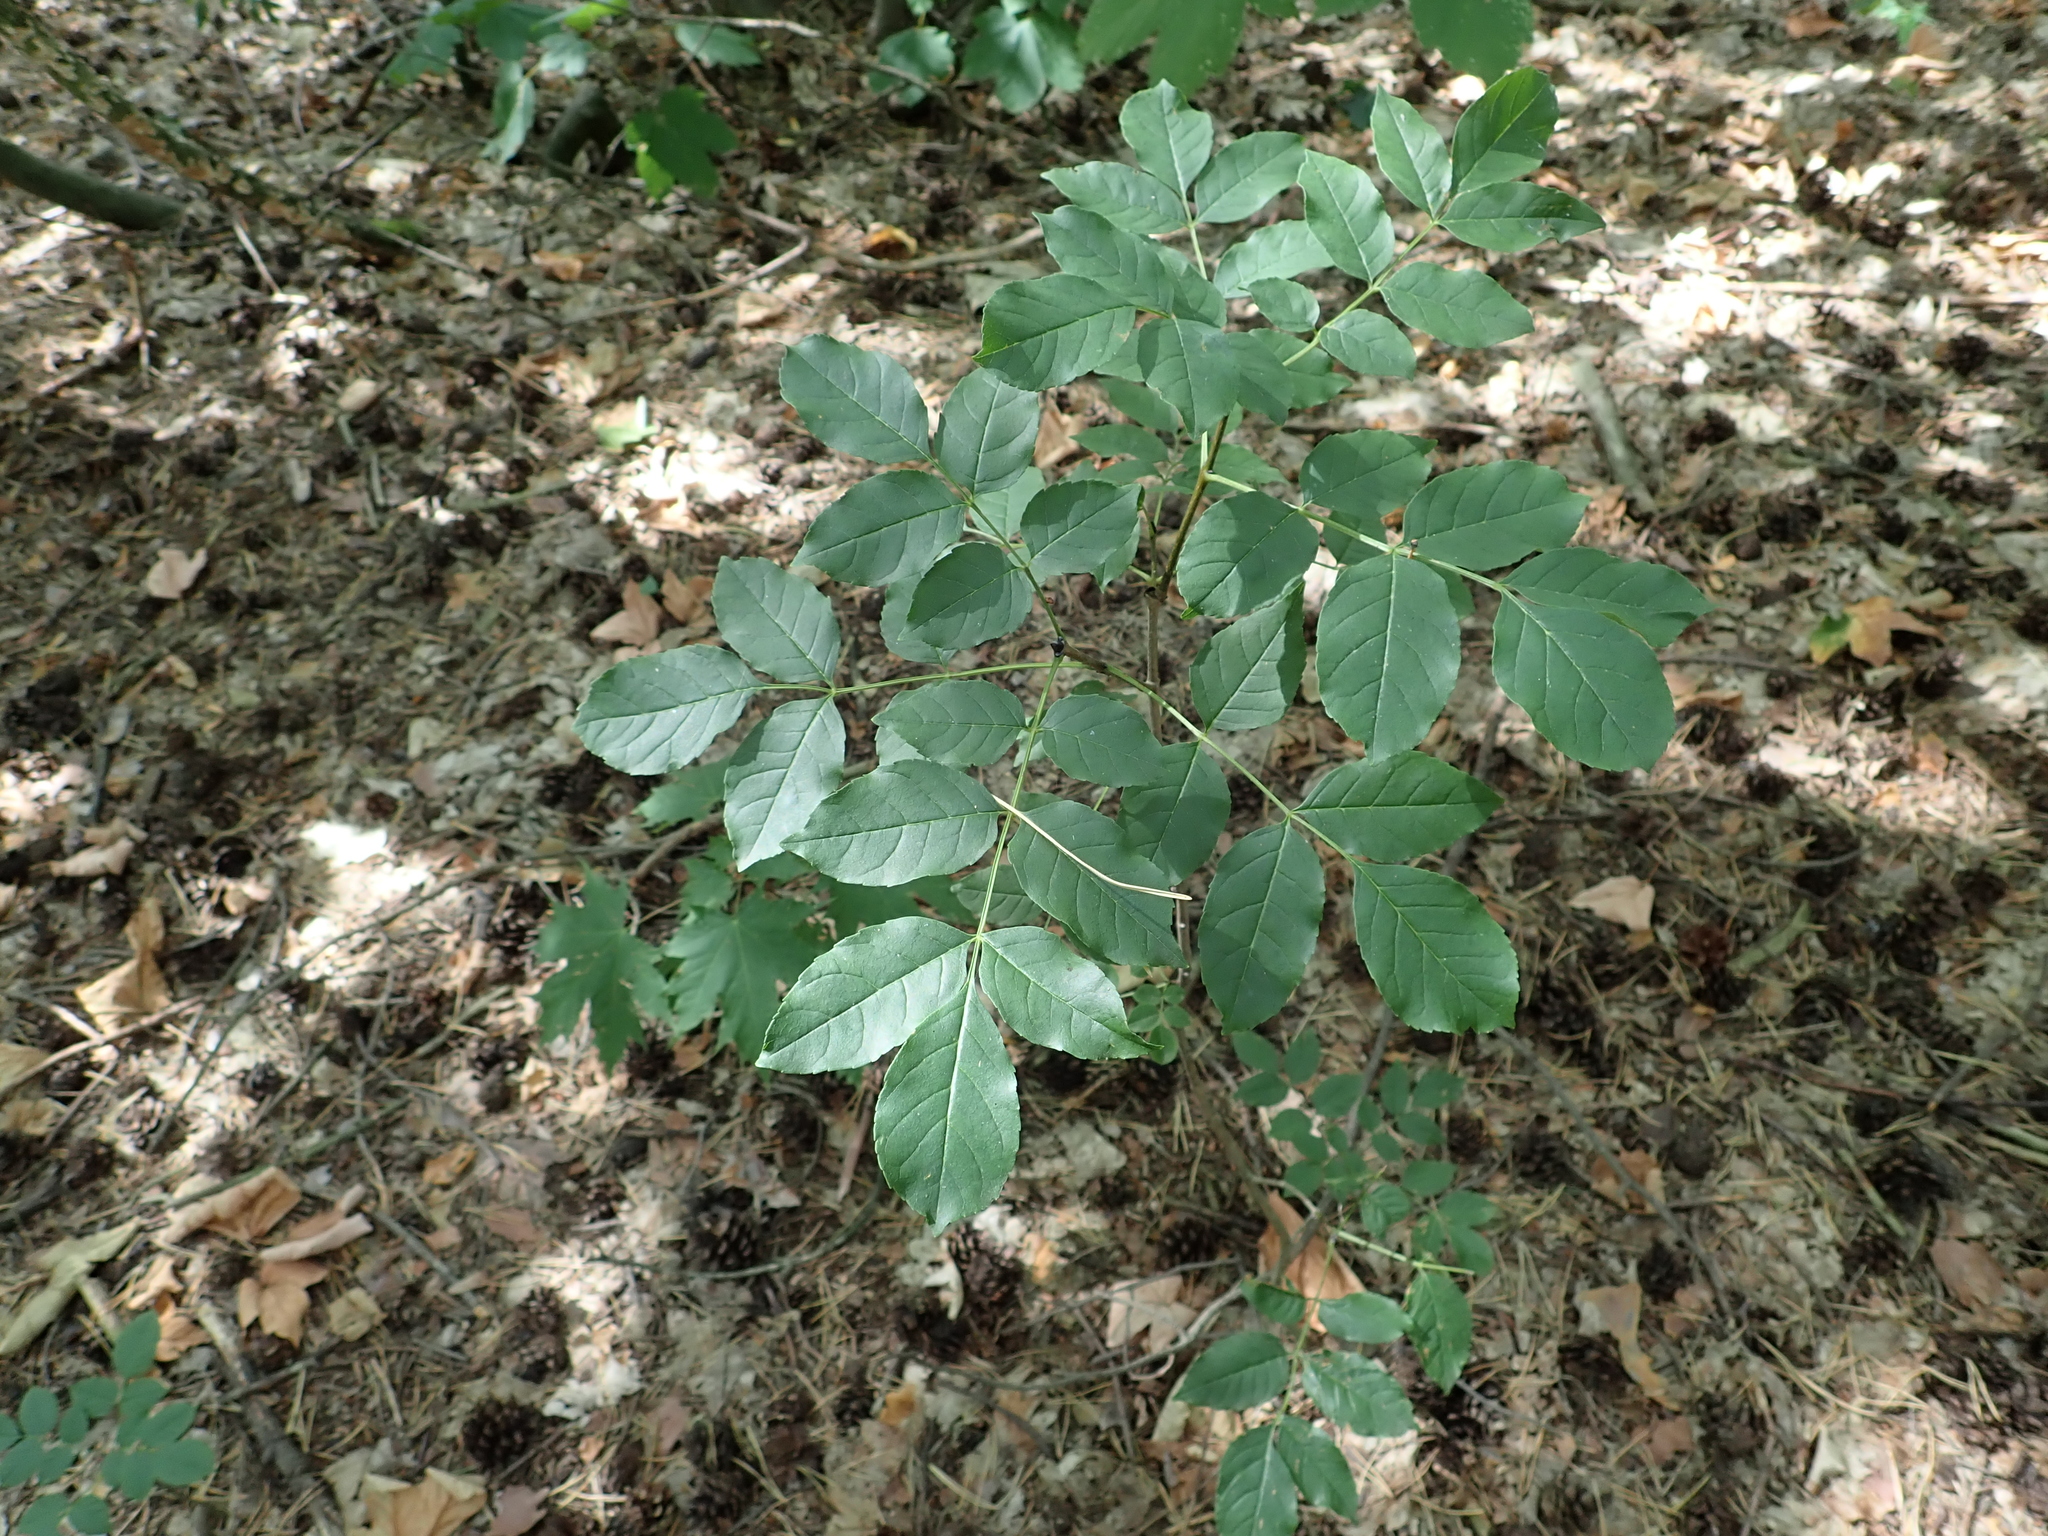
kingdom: Plantae
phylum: Tracheophyta
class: Magnoliopsida
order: Lamiales
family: Oleaceae
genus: Fraxinus
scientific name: Fraxinus excelsior
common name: European ash
